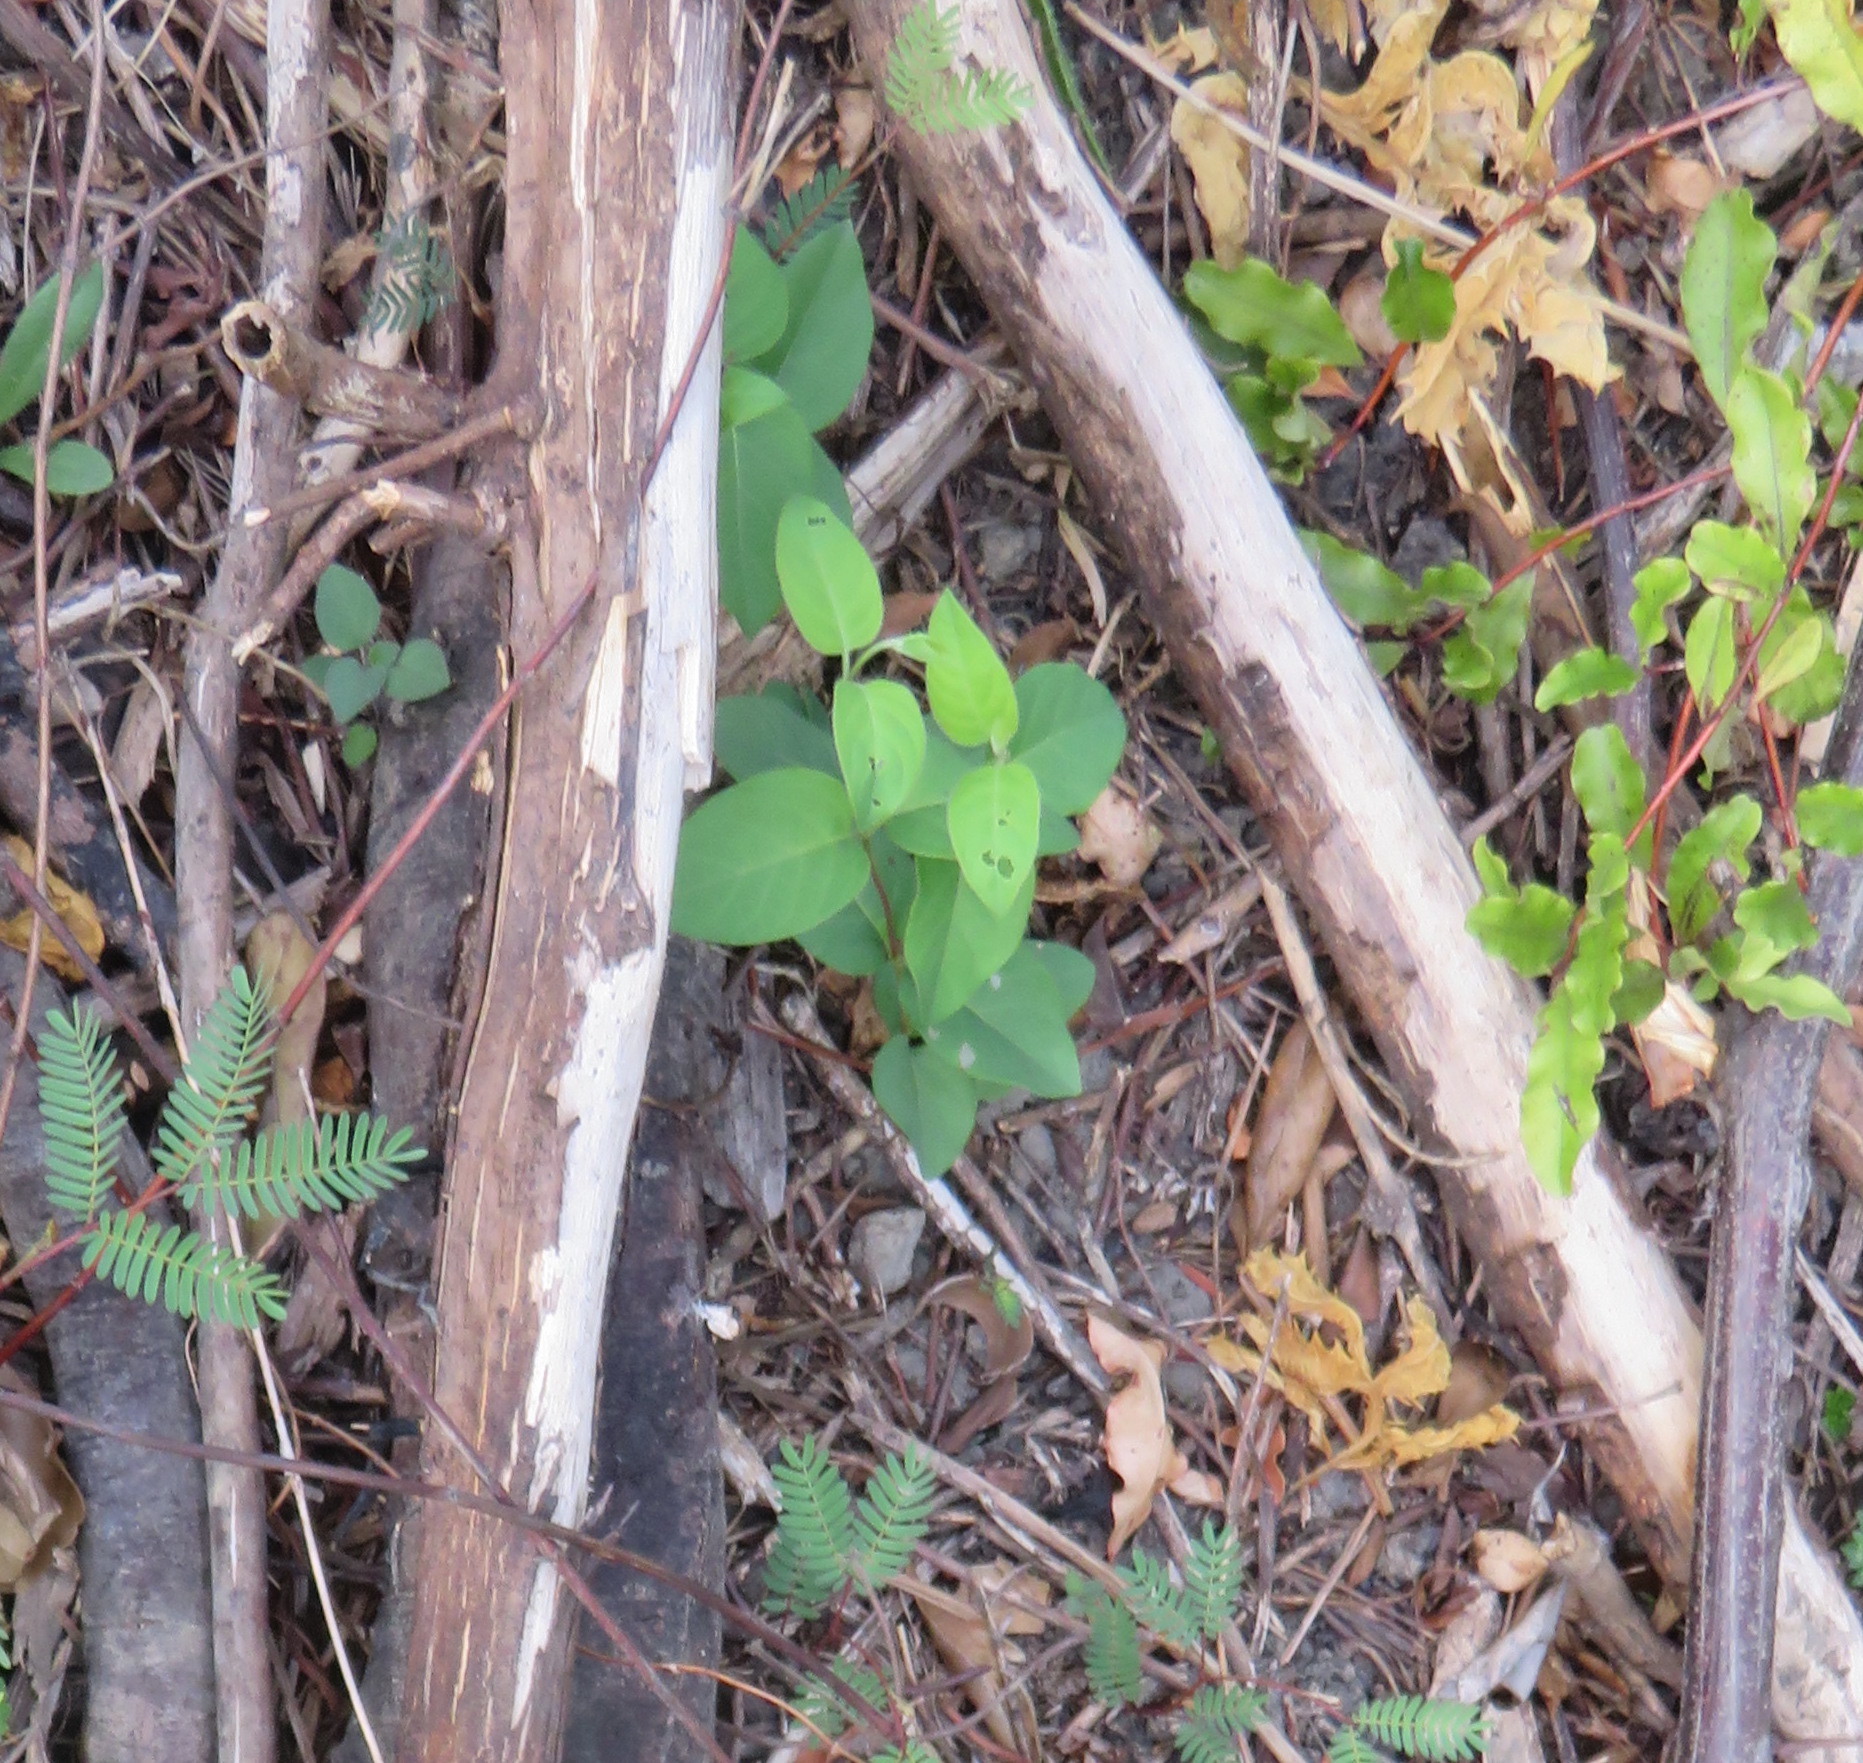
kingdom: Plantae
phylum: Tracheophyta
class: Magnoliopsida
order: Dipsacales
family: Caprifoliaceae
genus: Lonicera
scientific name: Lonicera japonica
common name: Japanese honeysuckle
